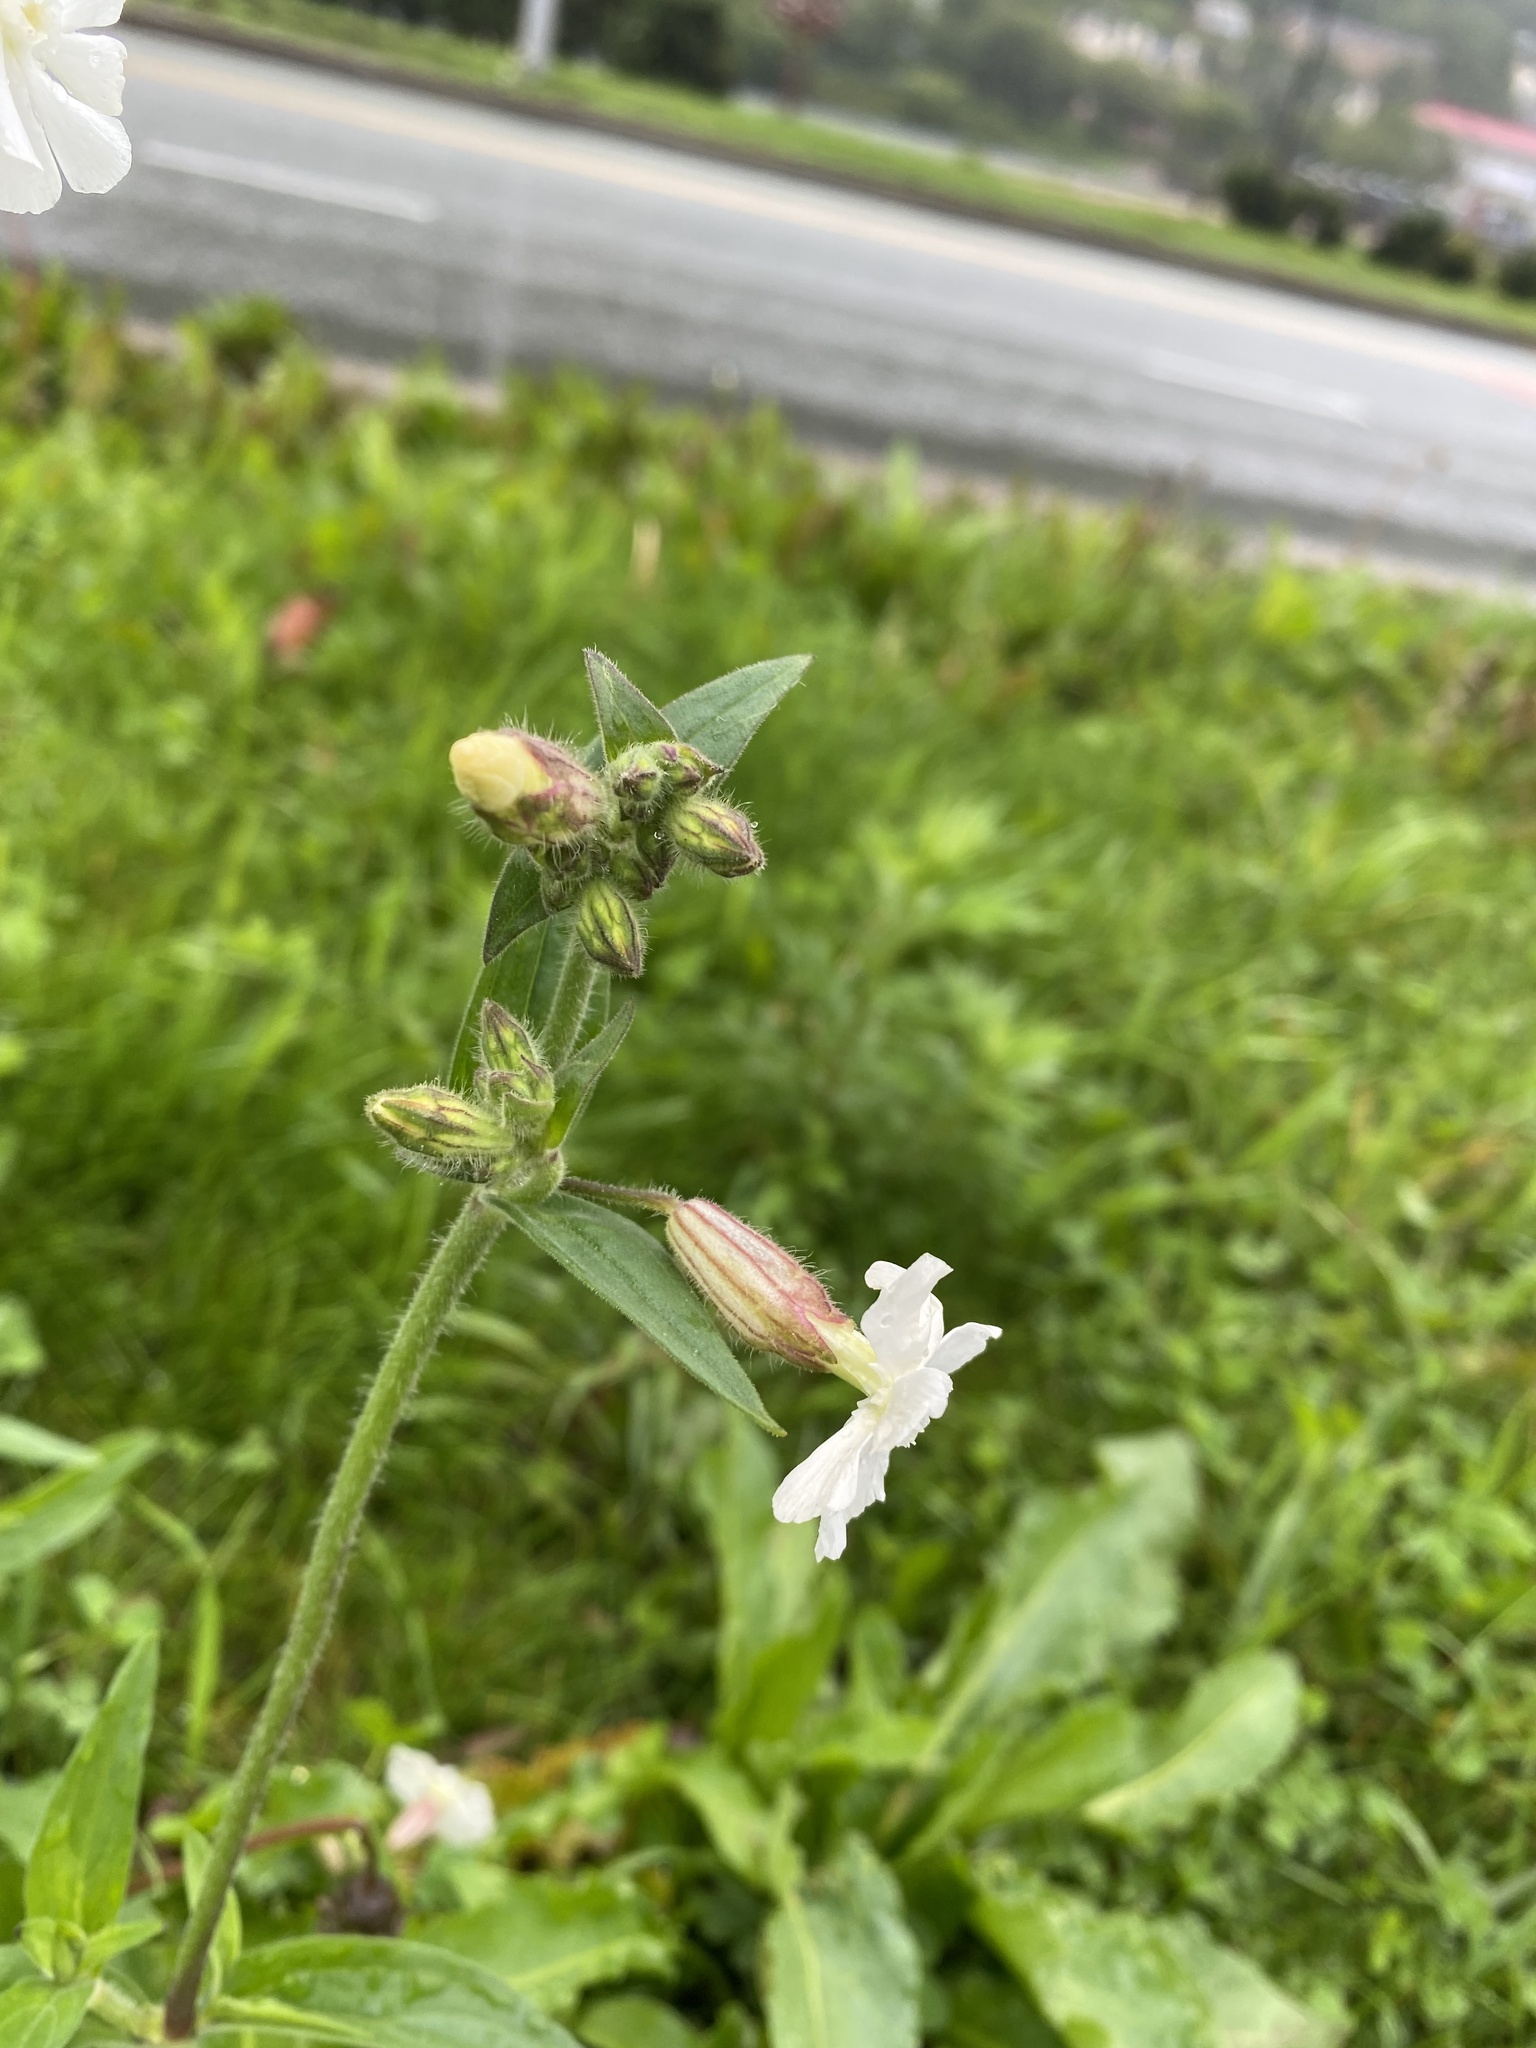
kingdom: Plantae
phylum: Tracheophyta
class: Magnoliopsida
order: Caryophyllales
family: Caryophyllaceae
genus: Silene
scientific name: Silene latifolia
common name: White campion
